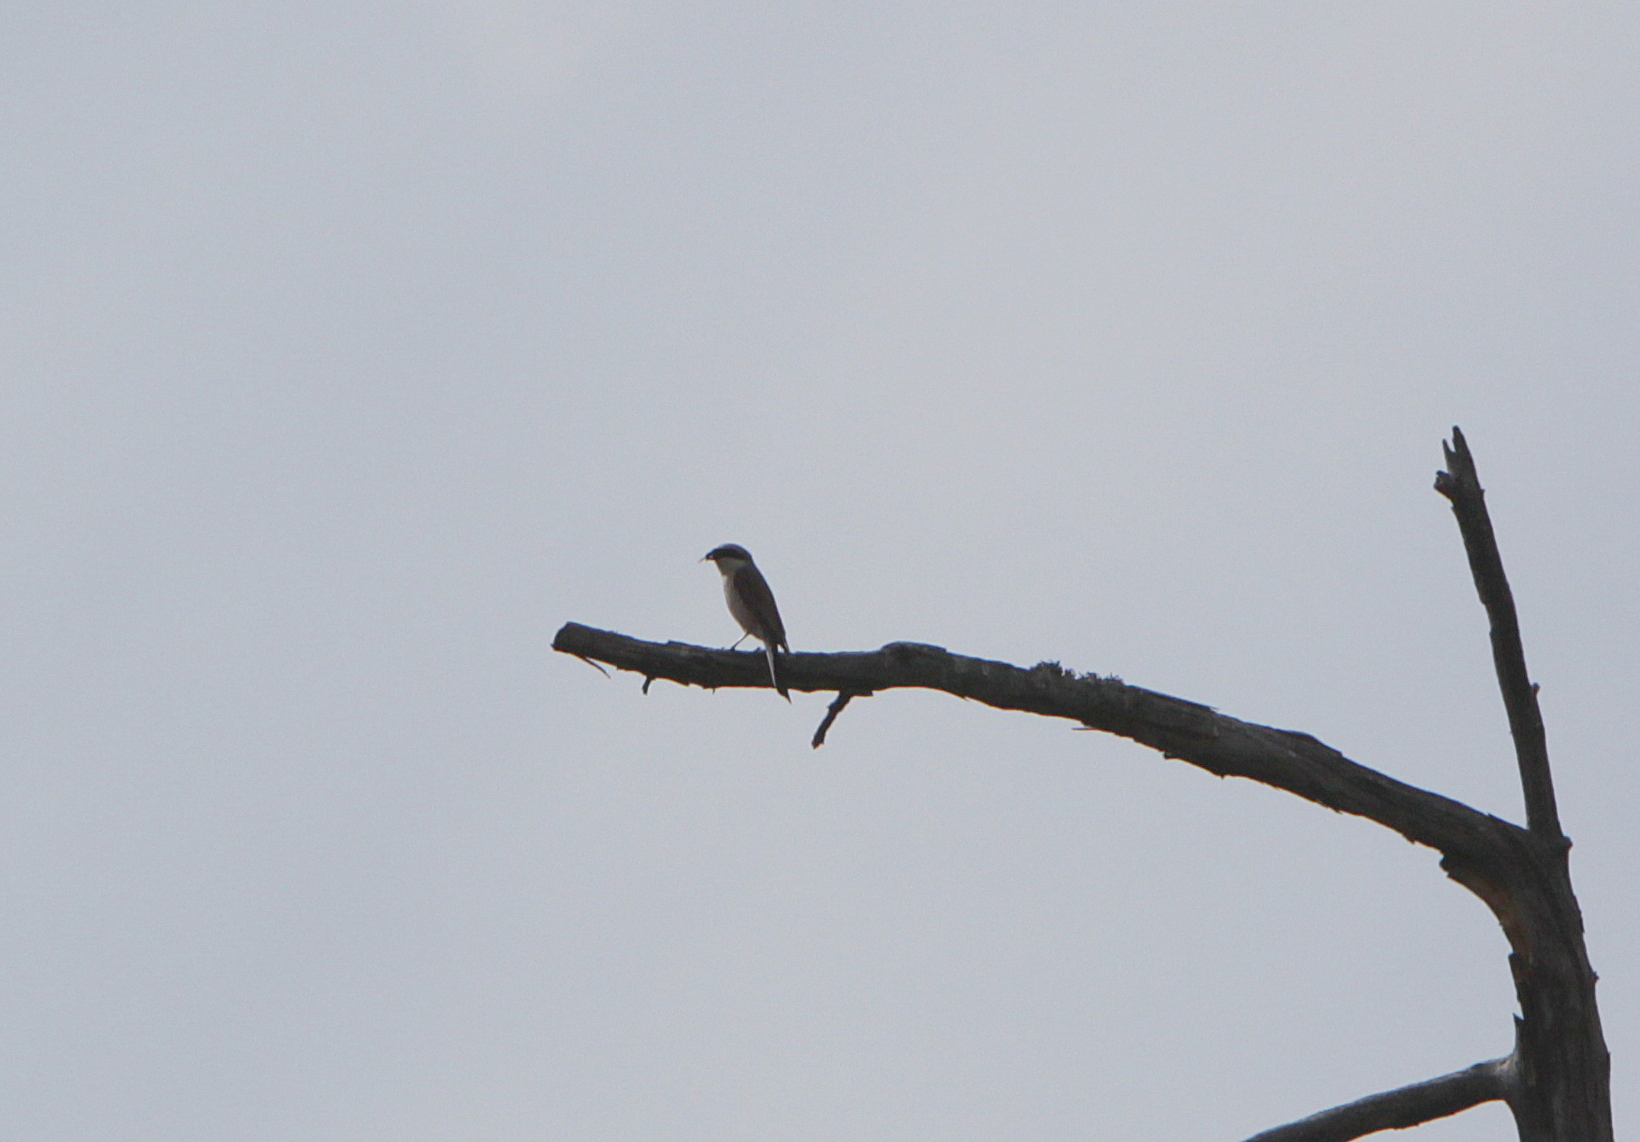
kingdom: Animalia
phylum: Chordata
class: Aves
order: Passeriformes
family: Laniidae
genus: Lanius
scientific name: Lanius collurio
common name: Red-backed shrike
